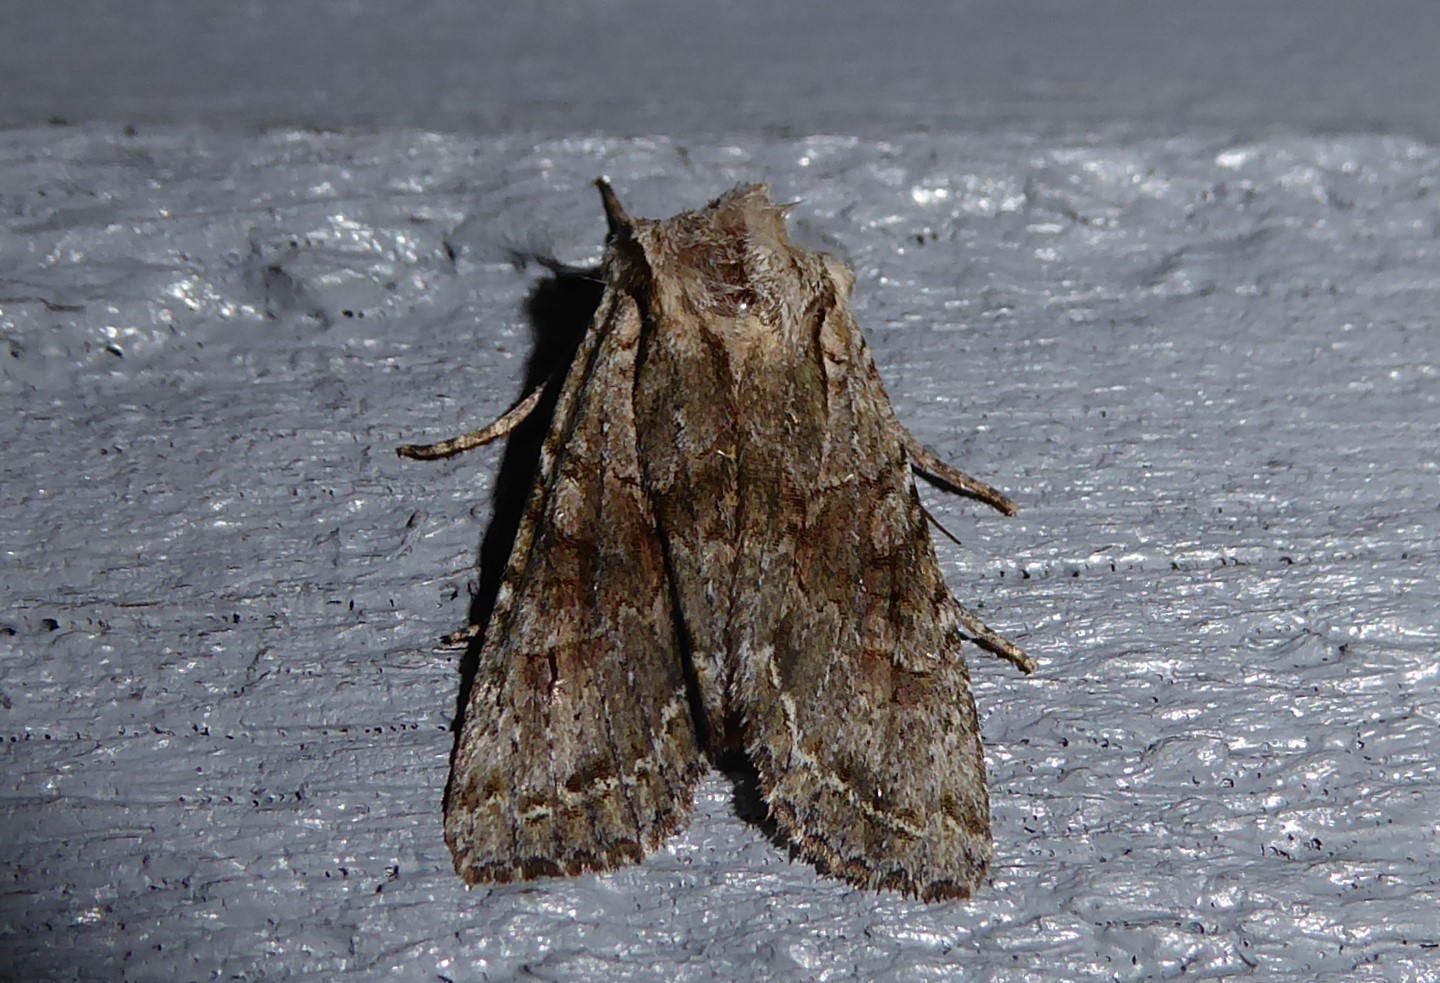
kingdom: Animalia
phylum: Arthropoda
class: Insecta
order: Lepidoptera
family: Noctuidae
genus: Ichneutica
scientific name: Ichneutica mutans
